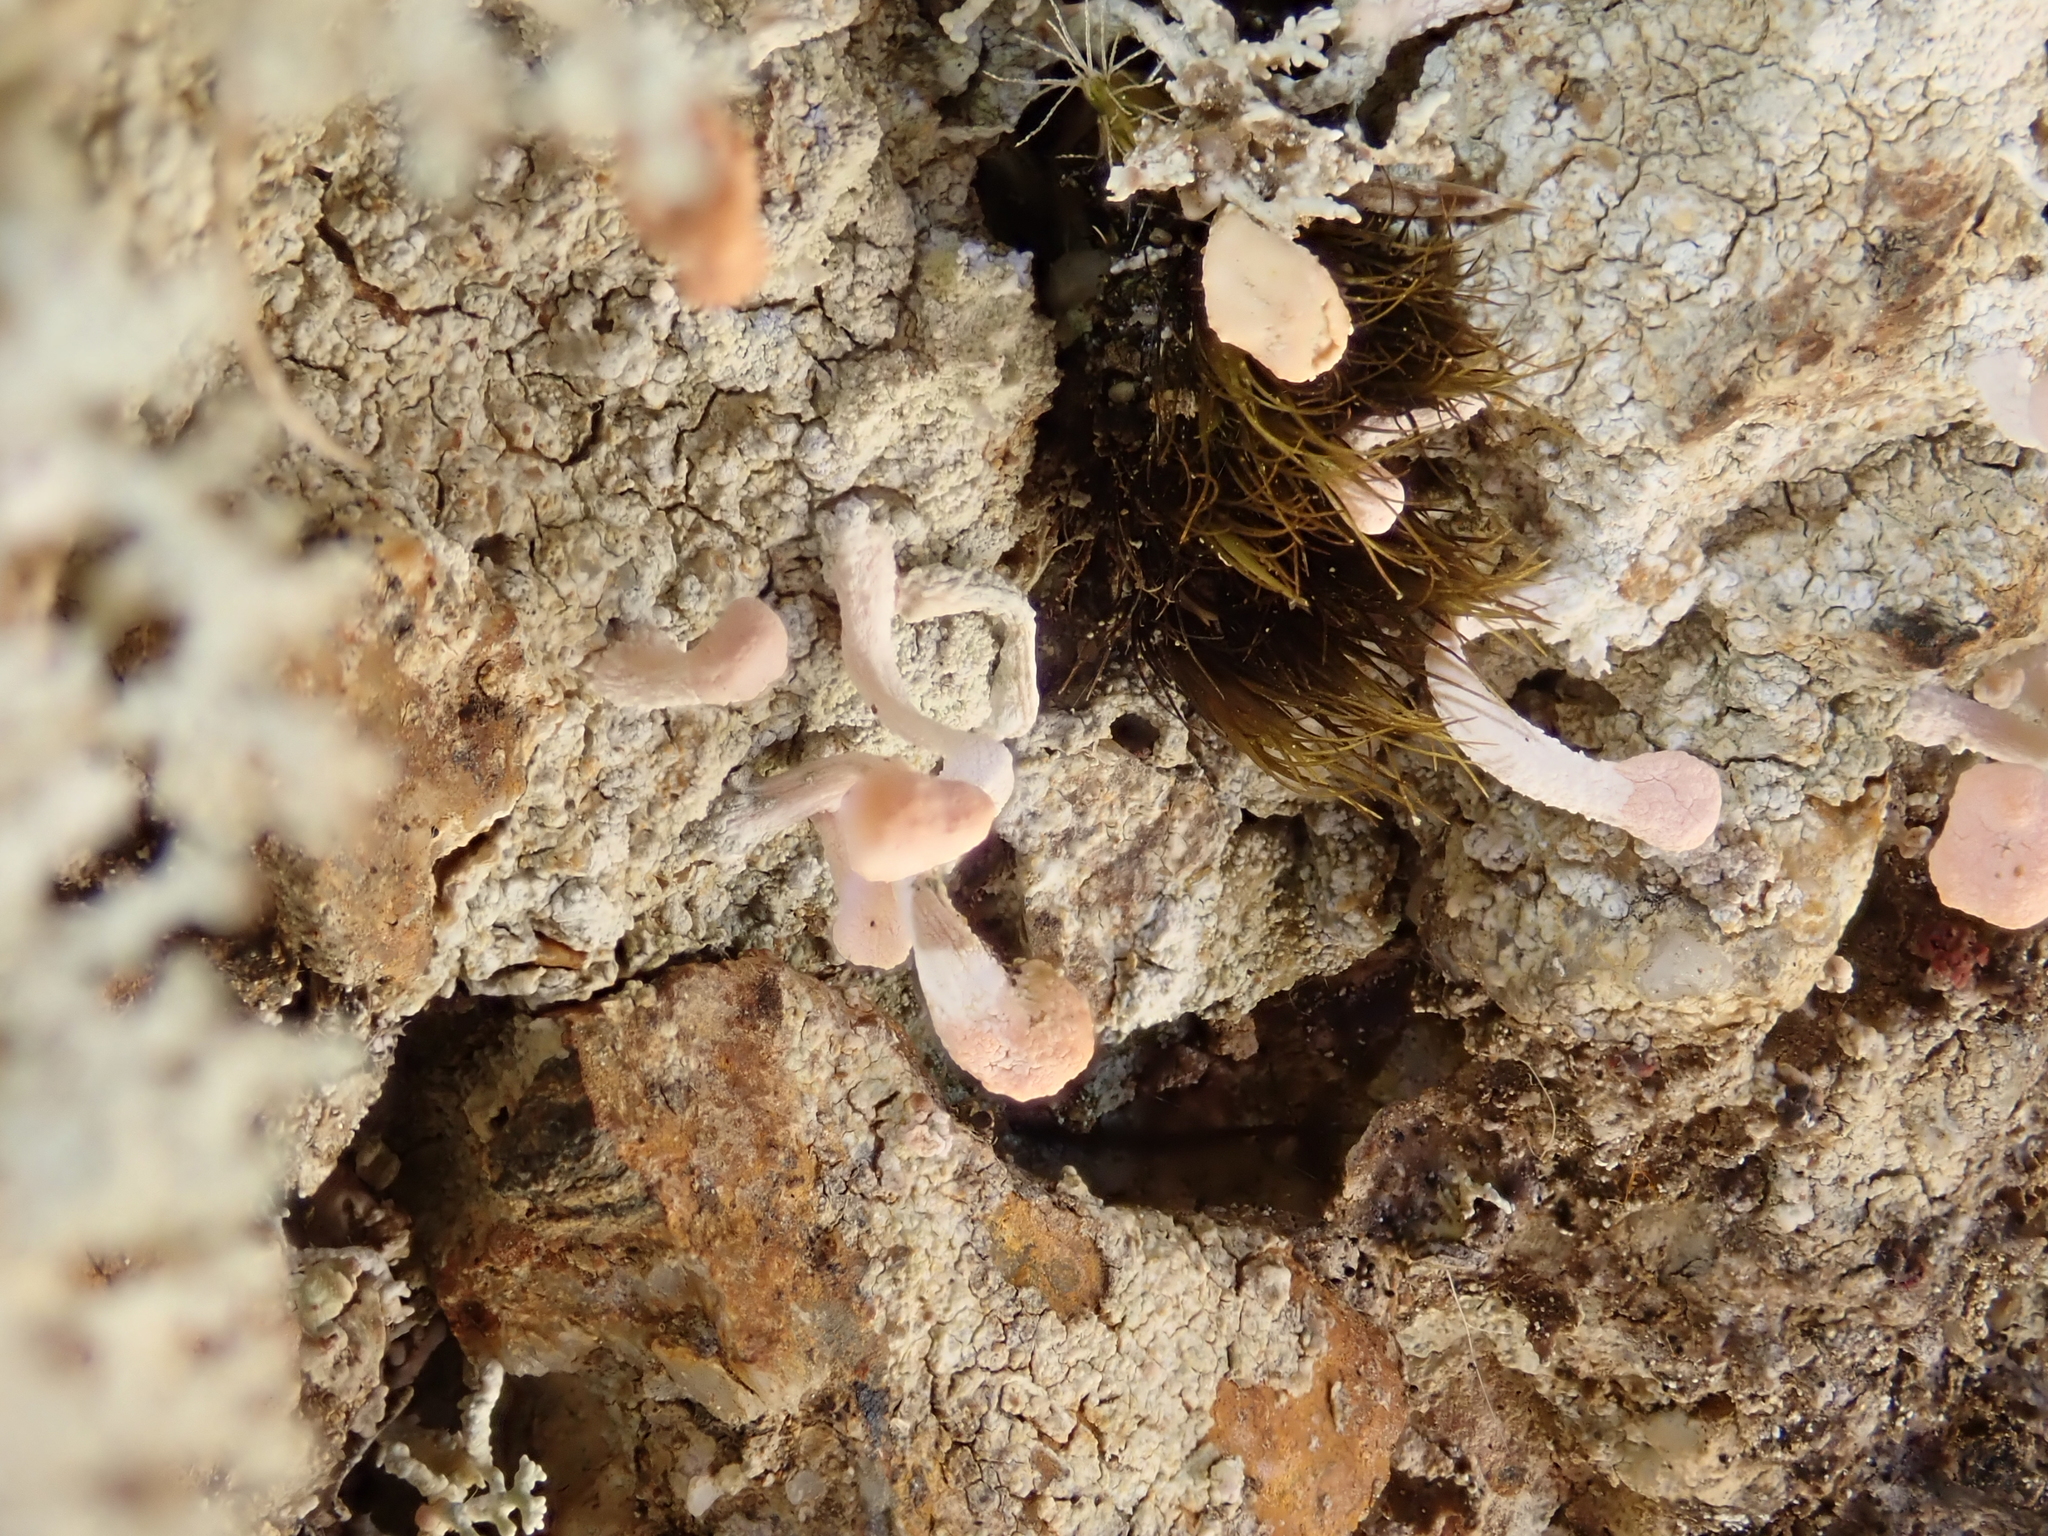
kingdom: Fungi
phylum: Ascomycota
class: Lecanoromycetes
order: Pertusariales
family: Icmadophilaceae
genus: Dibaeis
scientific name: Dibaeis arcuata
